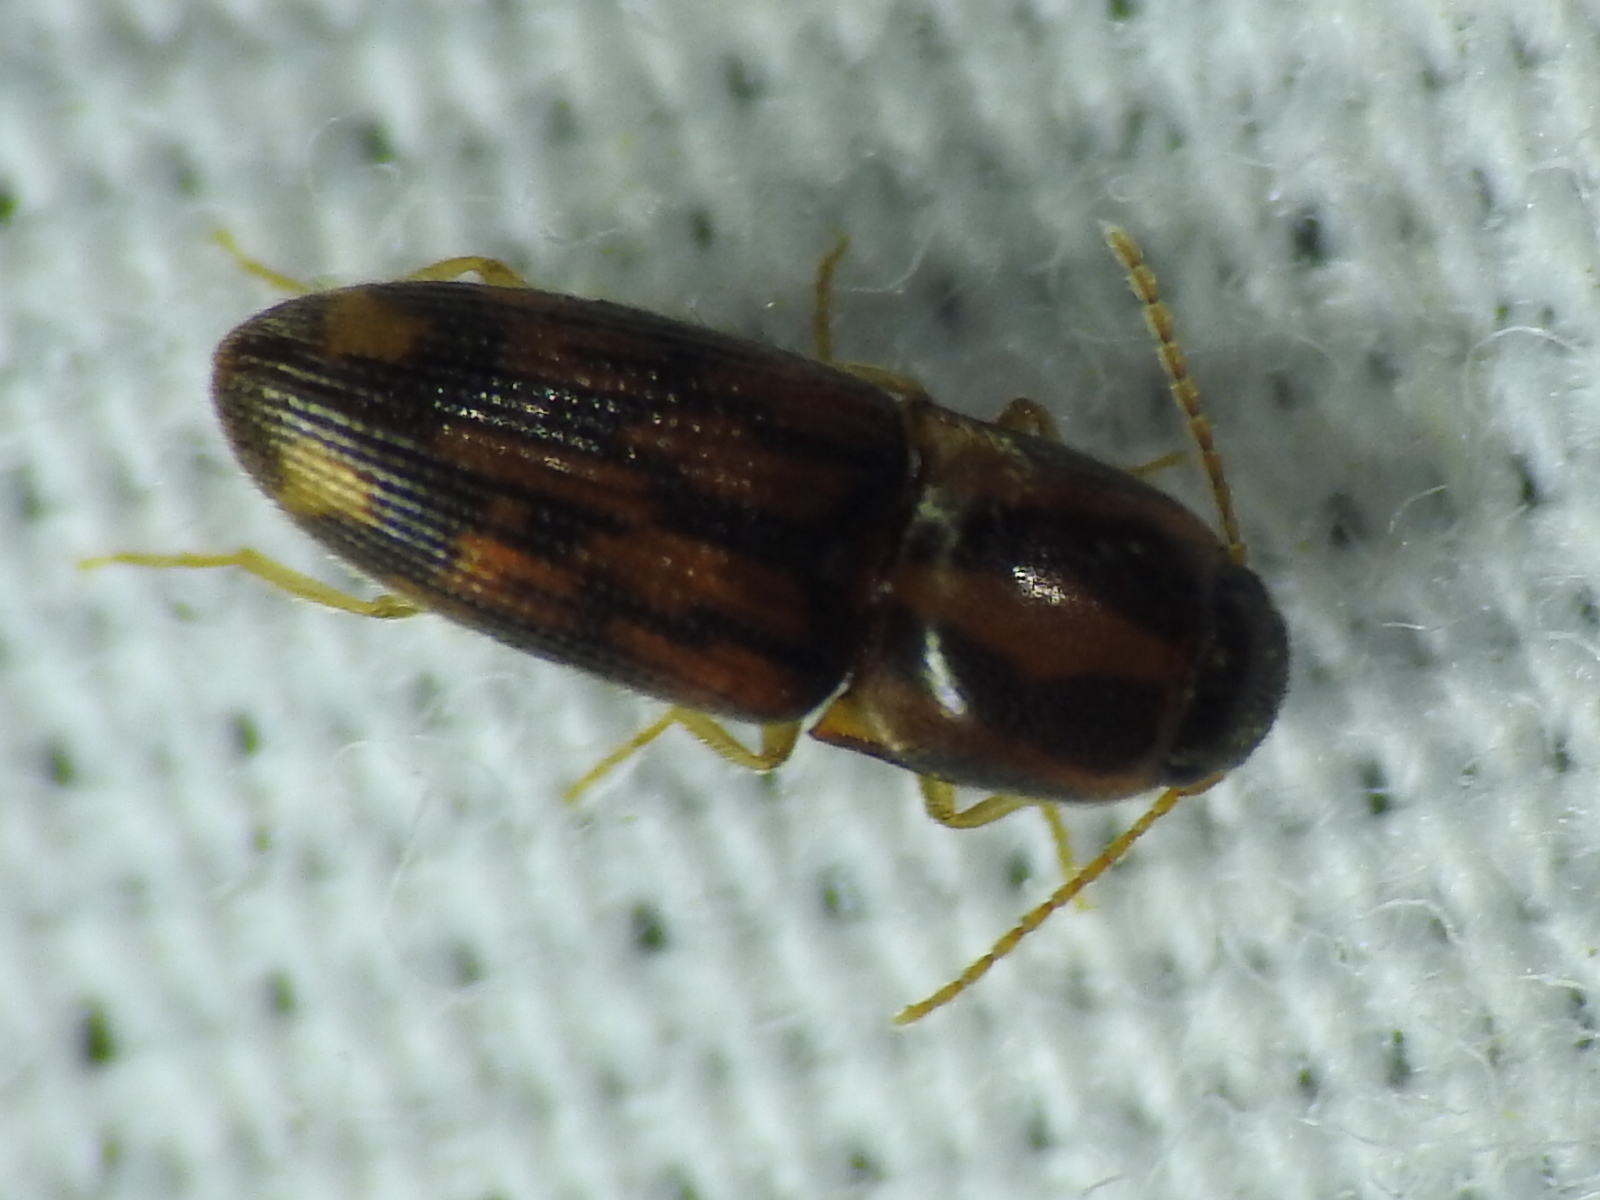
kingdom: Animalia
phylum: Arthropoda
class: Insecta
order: Coleoptera
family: Elateridae
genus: Monocrepidius
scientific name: Monocrepidius bellus
